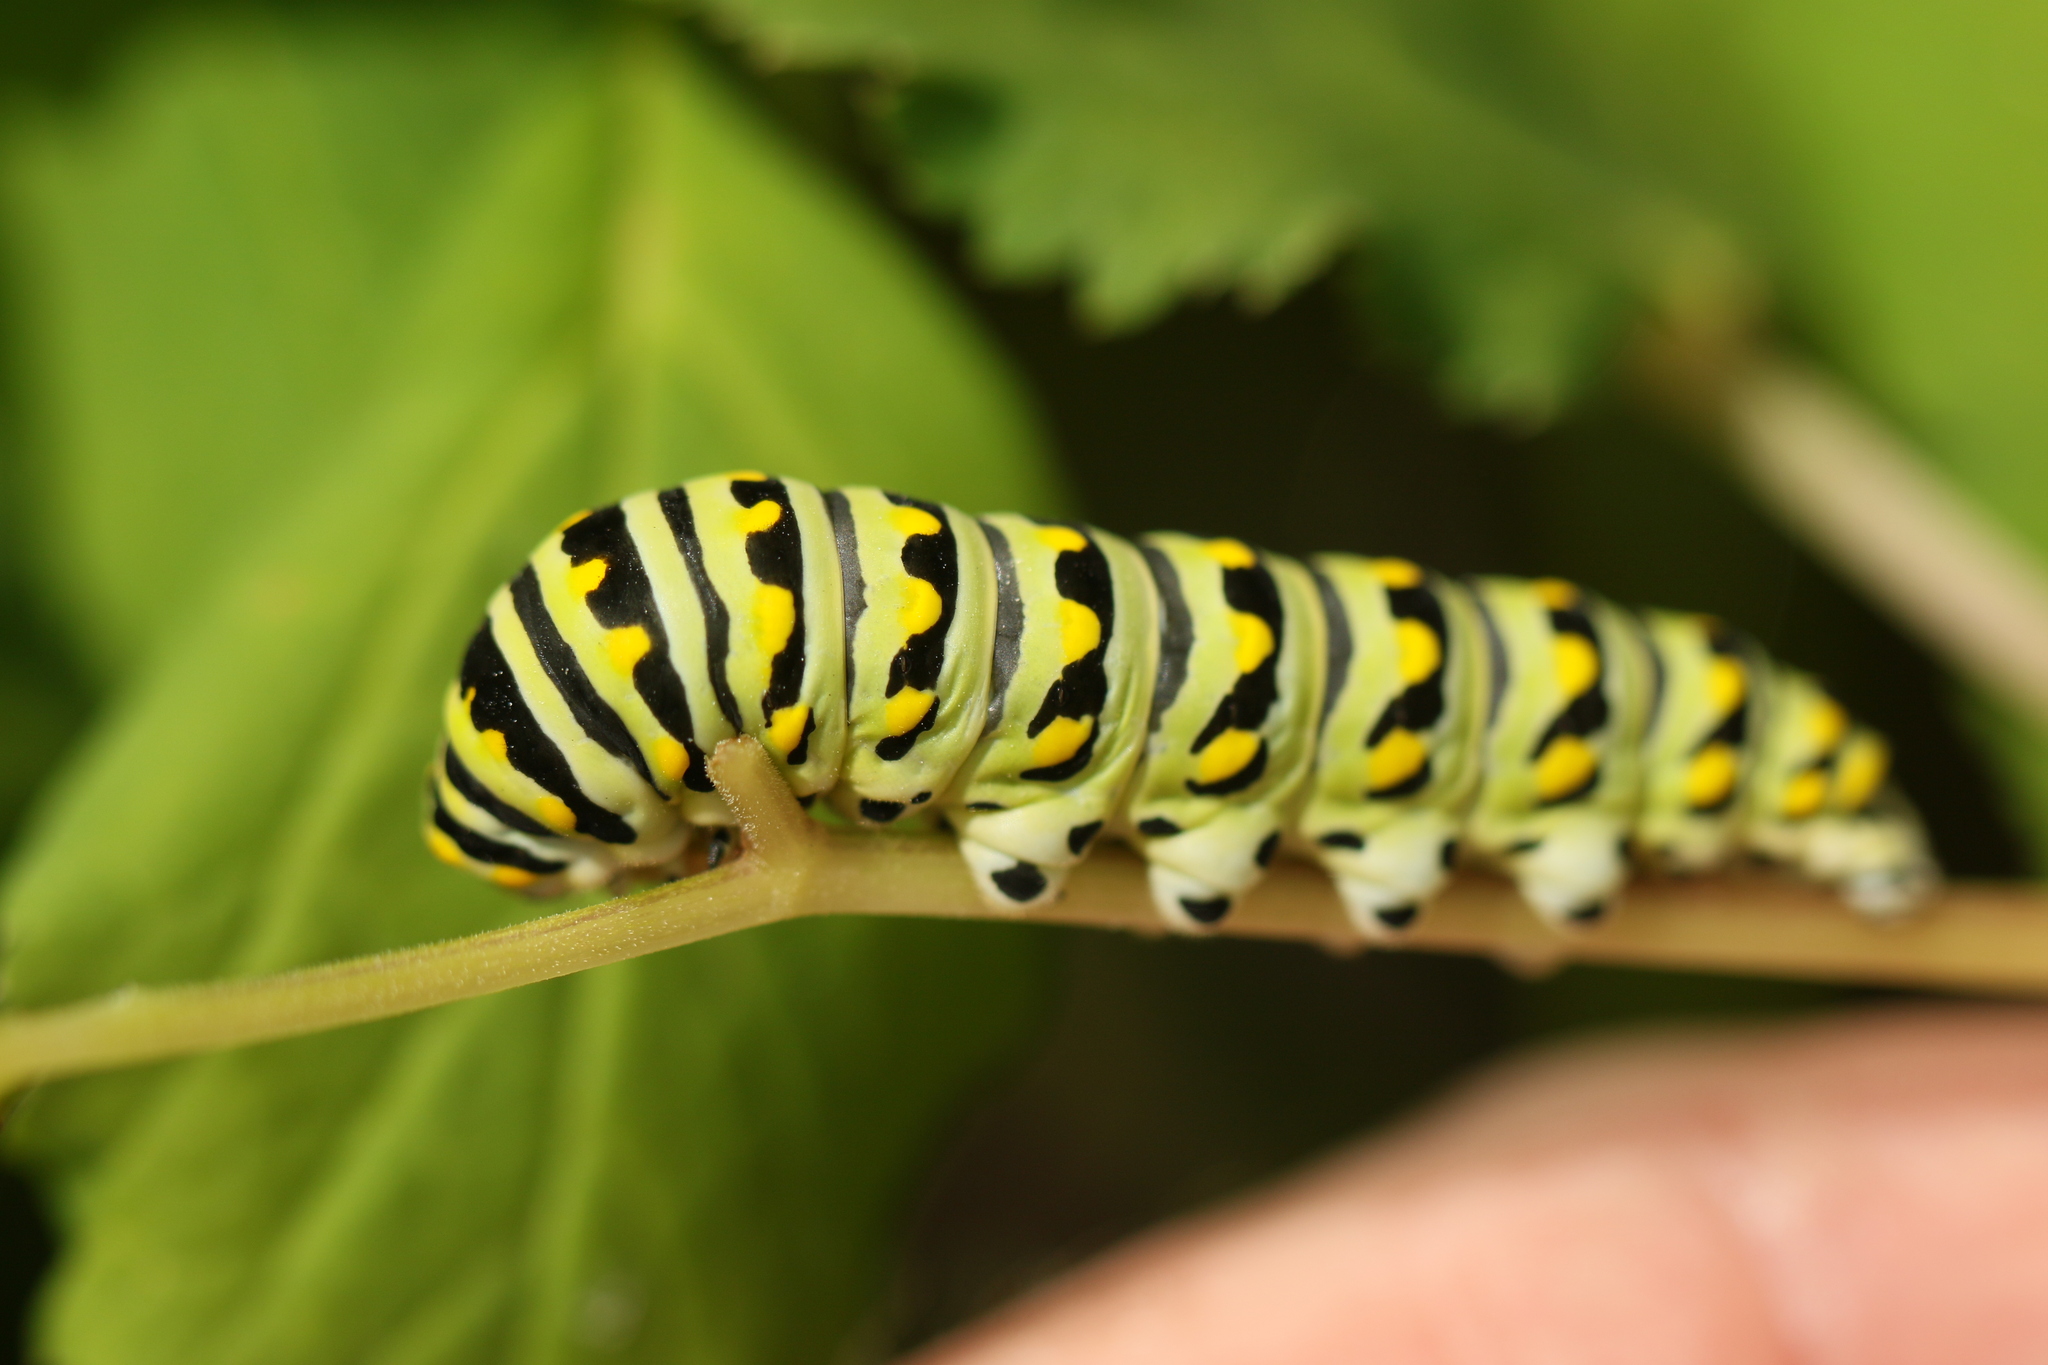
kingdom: Animalia
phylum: Arthropoda
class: Insecta
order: Lepidoptera
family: Papilionidae
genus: Papilio
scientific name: Papilio polyxenes
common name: Black swallowtail
